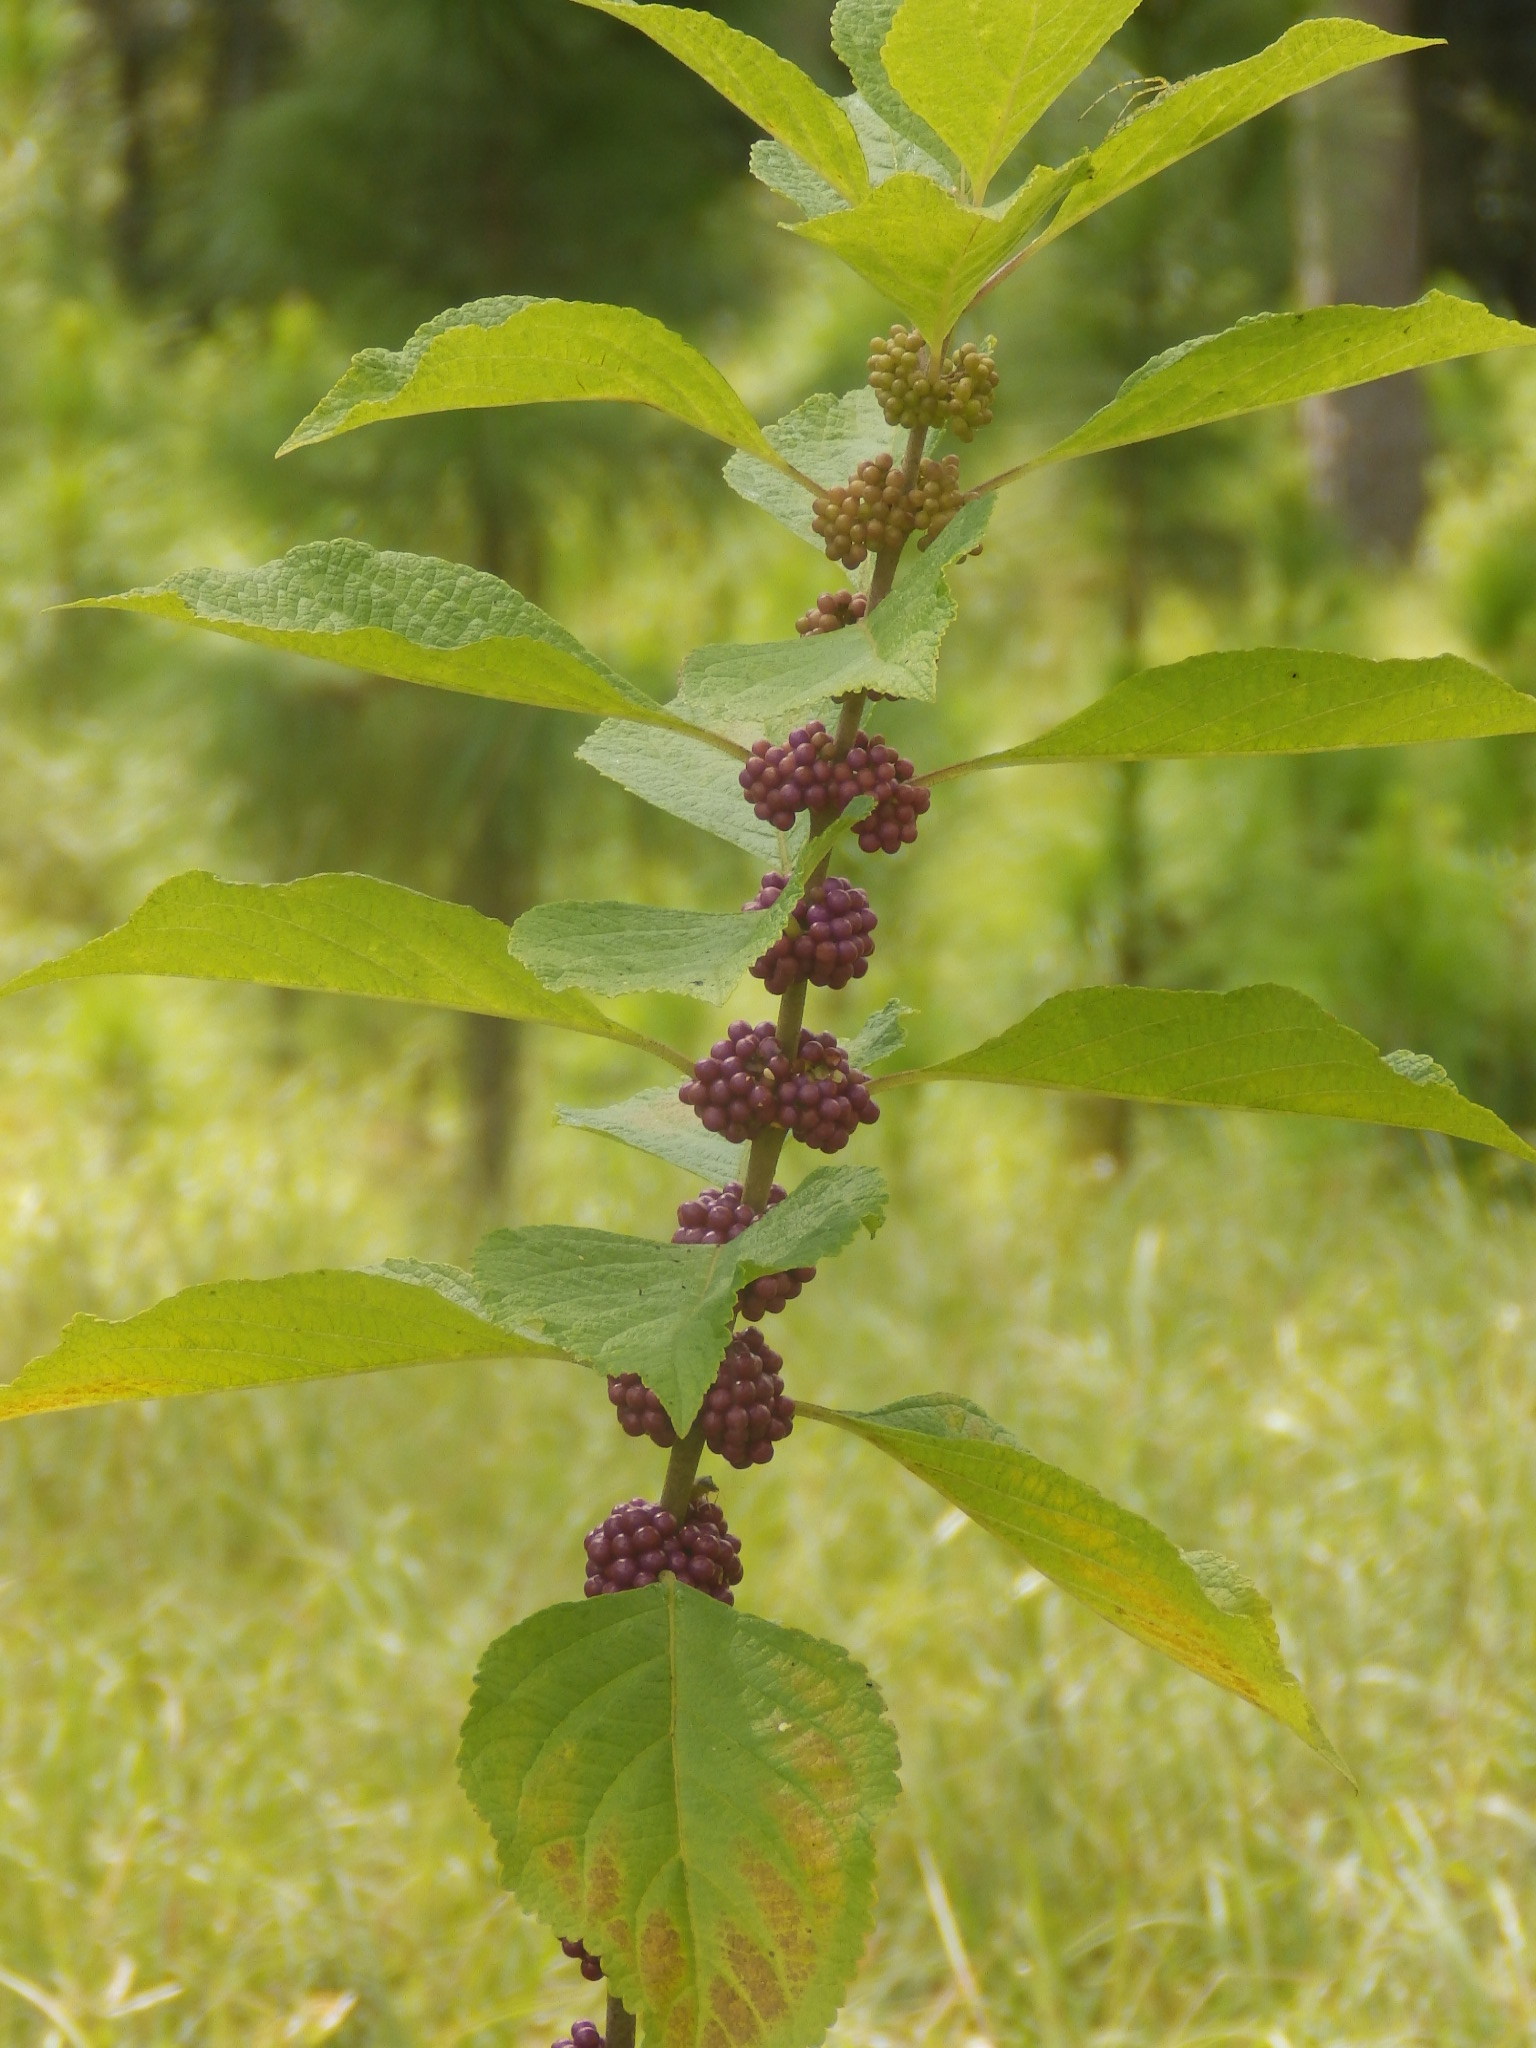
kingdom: Plantae
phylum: Tracheophyta
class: Magnoliopsida
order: Lamiales
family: Lamiaceae
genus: Callicarpa
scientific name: Callicarpa americana
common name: American beautyberry
